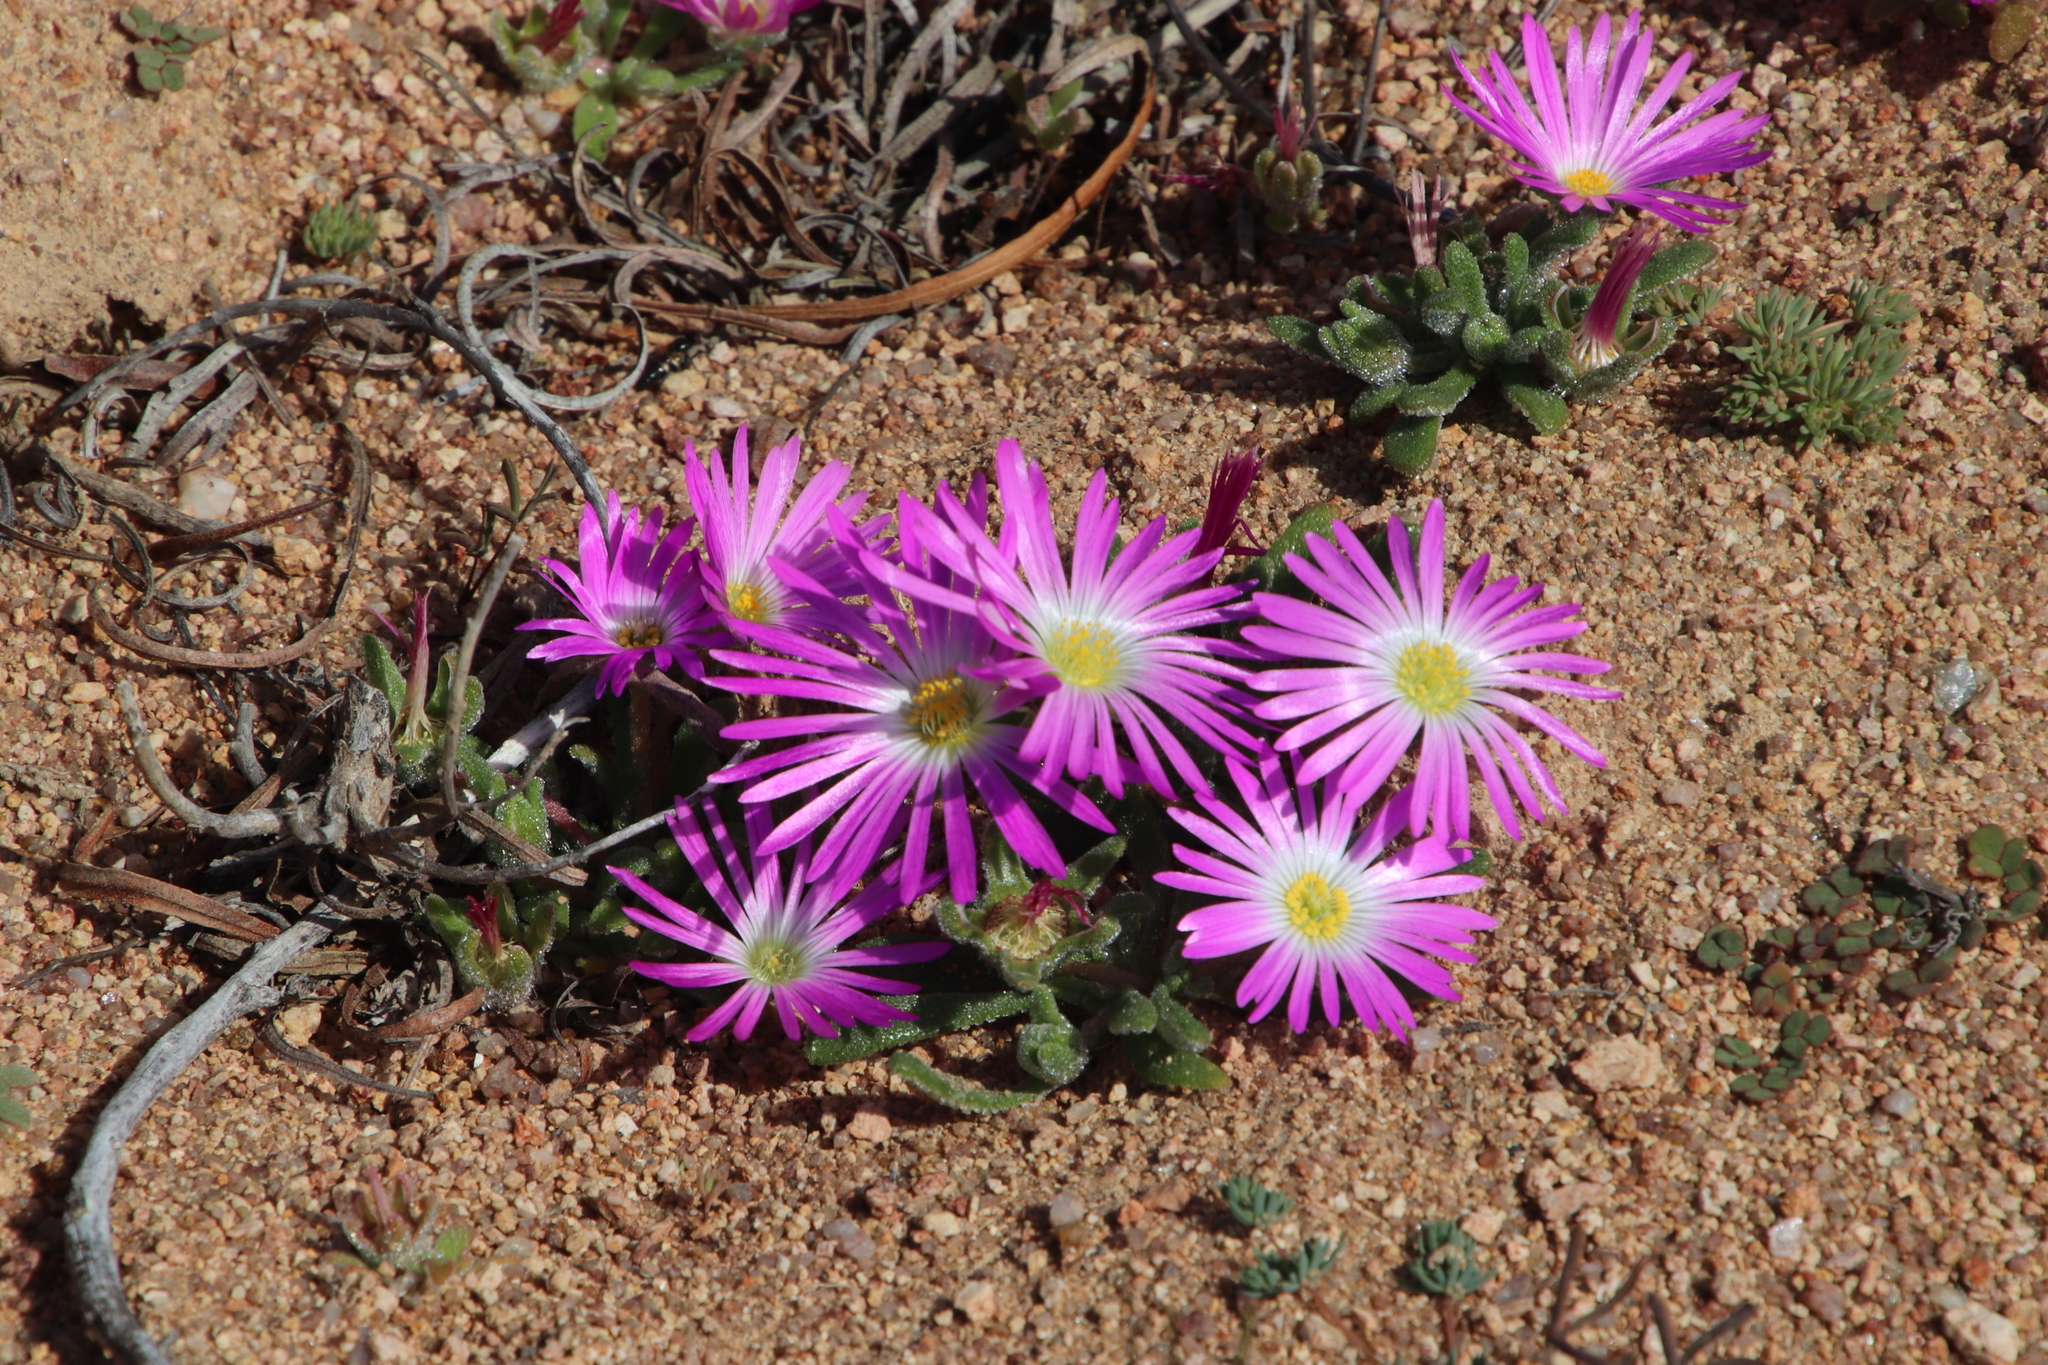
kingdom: Plantae
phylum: Tracheophyta
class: Magnoliopsida
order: Caryophyllales
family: Aizoaceae
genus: Cleretum
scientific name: Cleretum hestermalense
